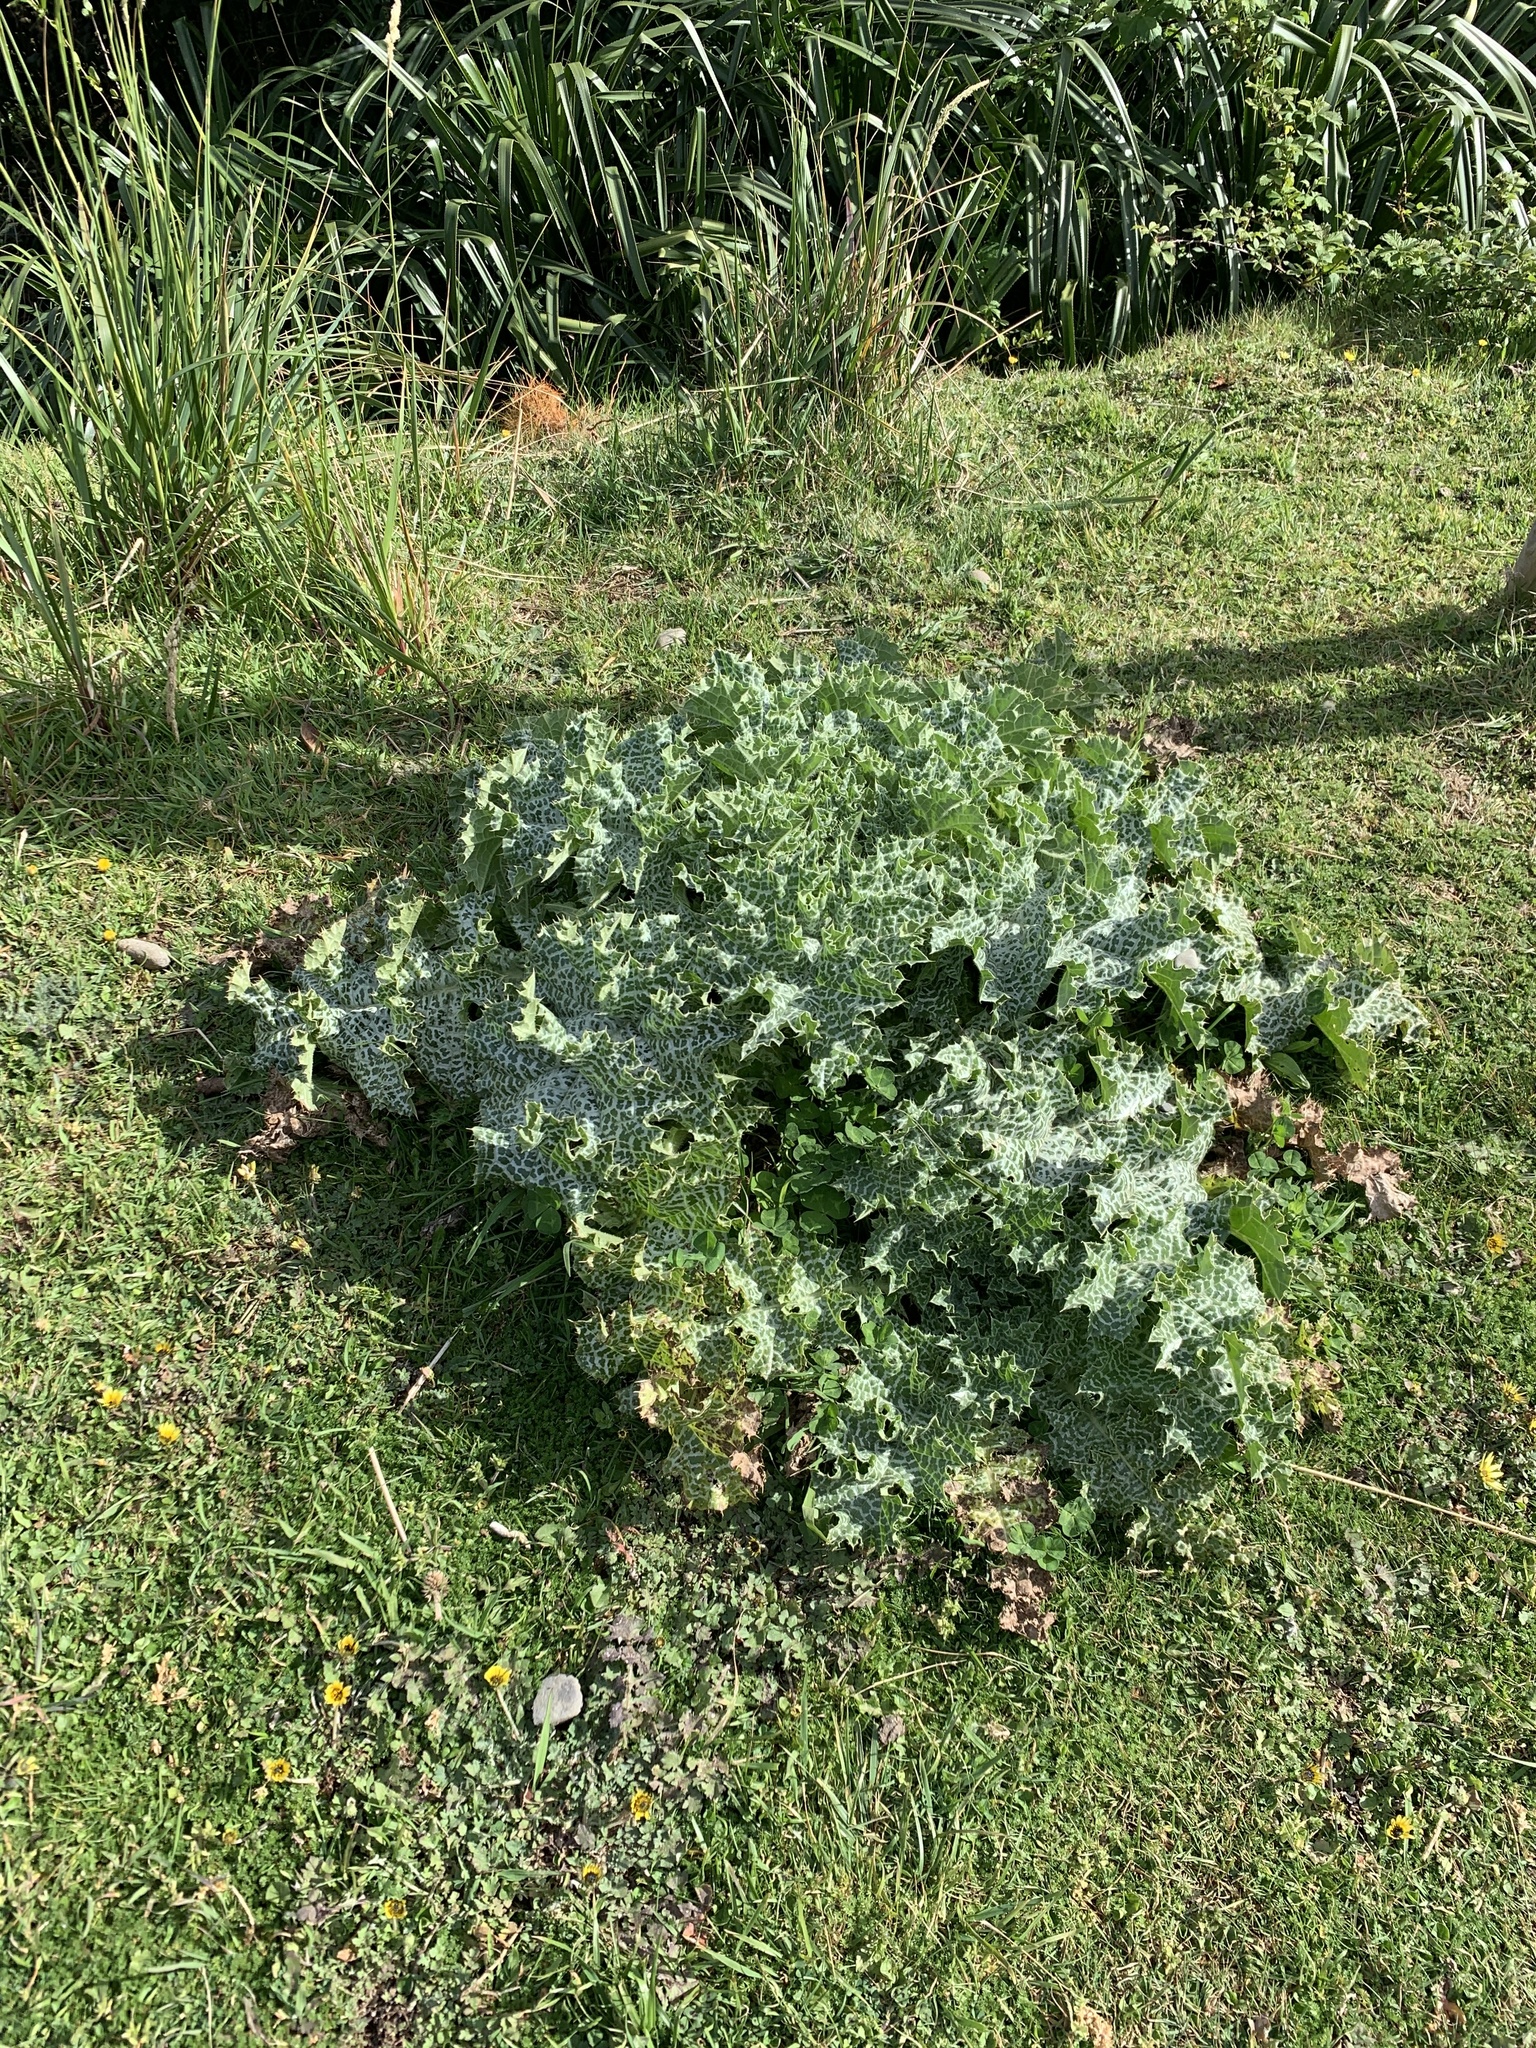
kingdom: Plantae
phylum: Tracheophyta
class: Magnoliopsida
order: Asterales
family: Asteraceae
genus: Silybum
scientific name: Silybum marianum
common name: Milk thistle
